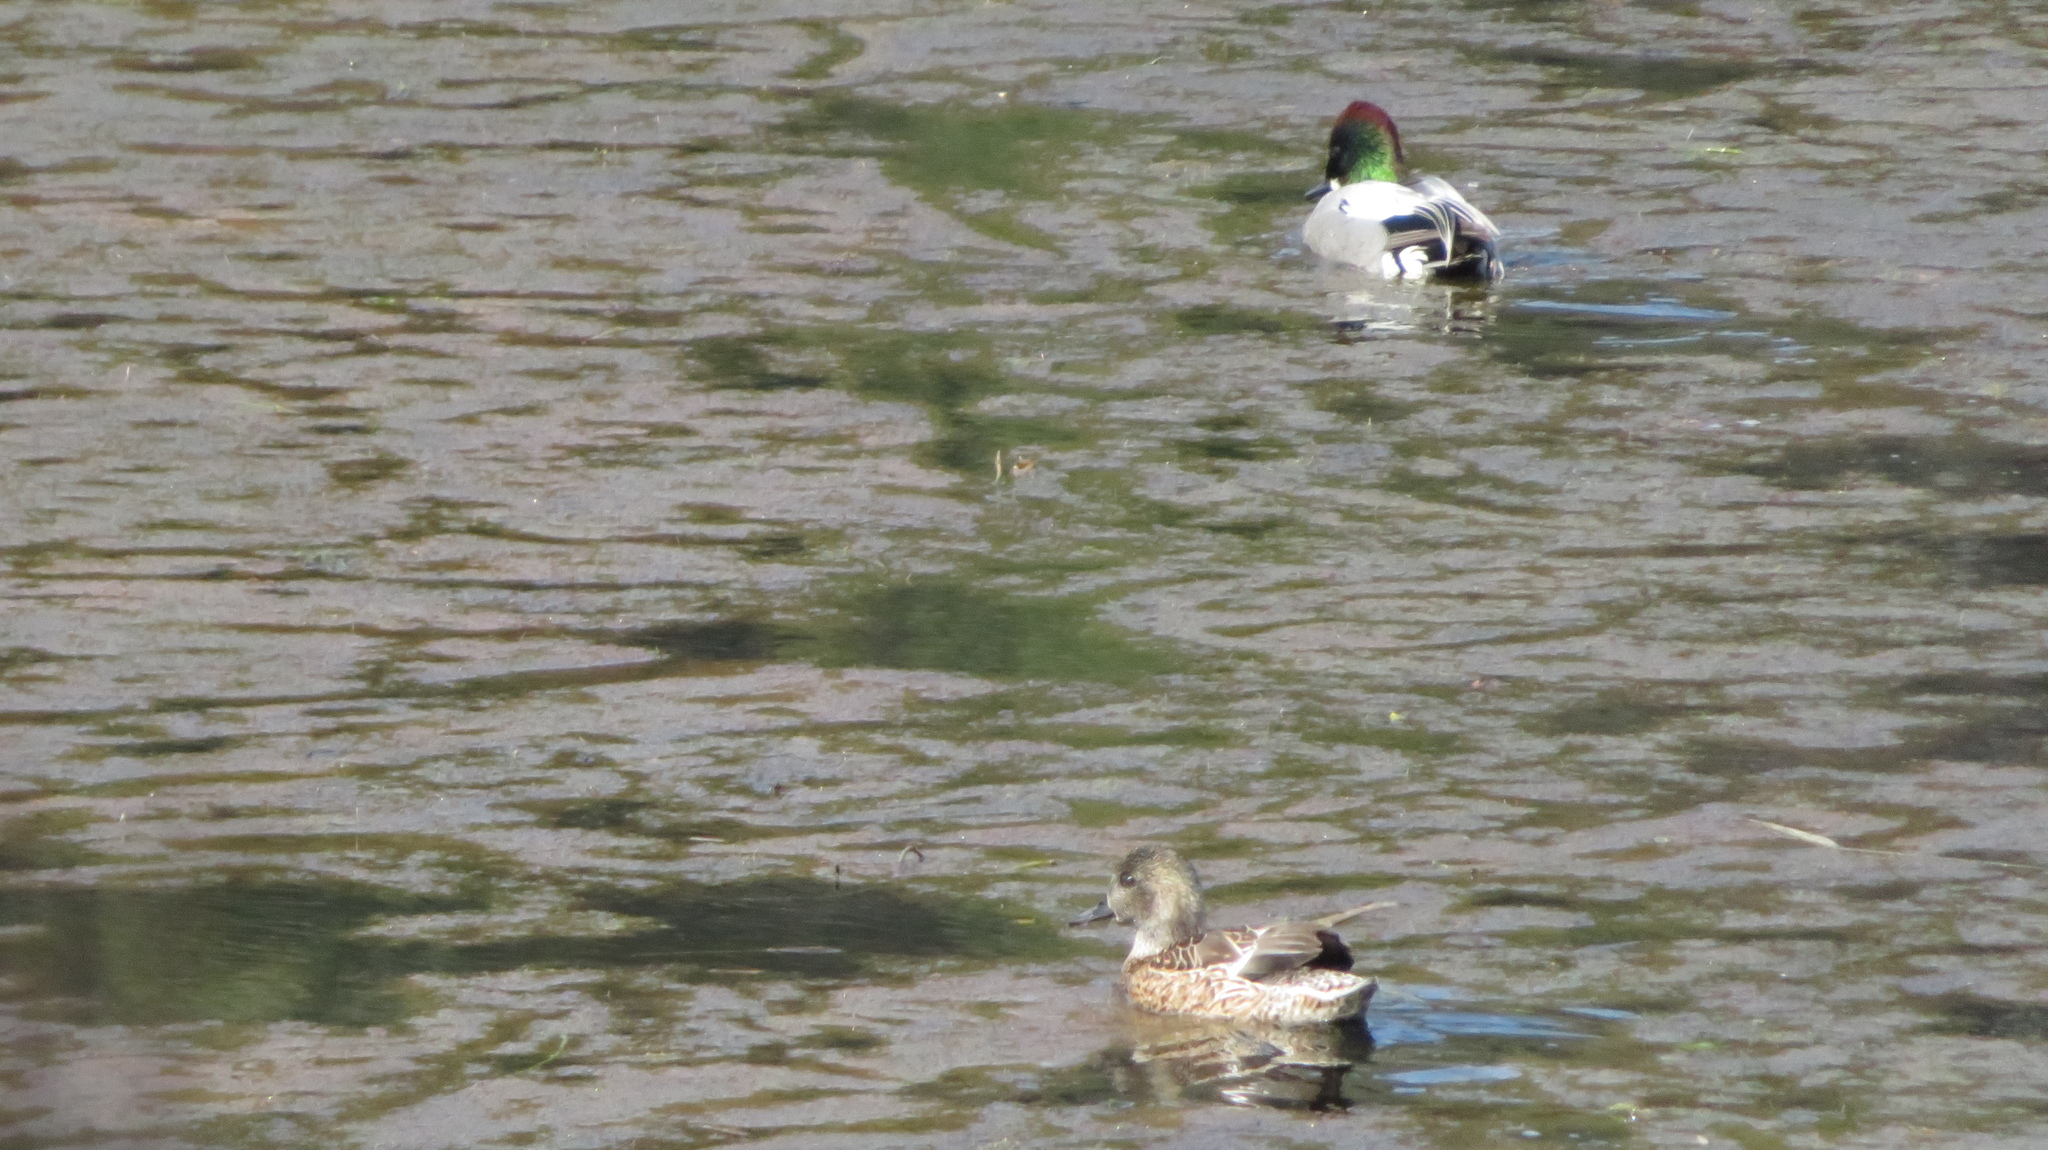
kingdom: Animalia
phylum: Chordata
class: Aves
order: Anseriformes
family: Anatidae
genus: Mareca
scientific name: Mareca falcata
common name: Falcated duck
